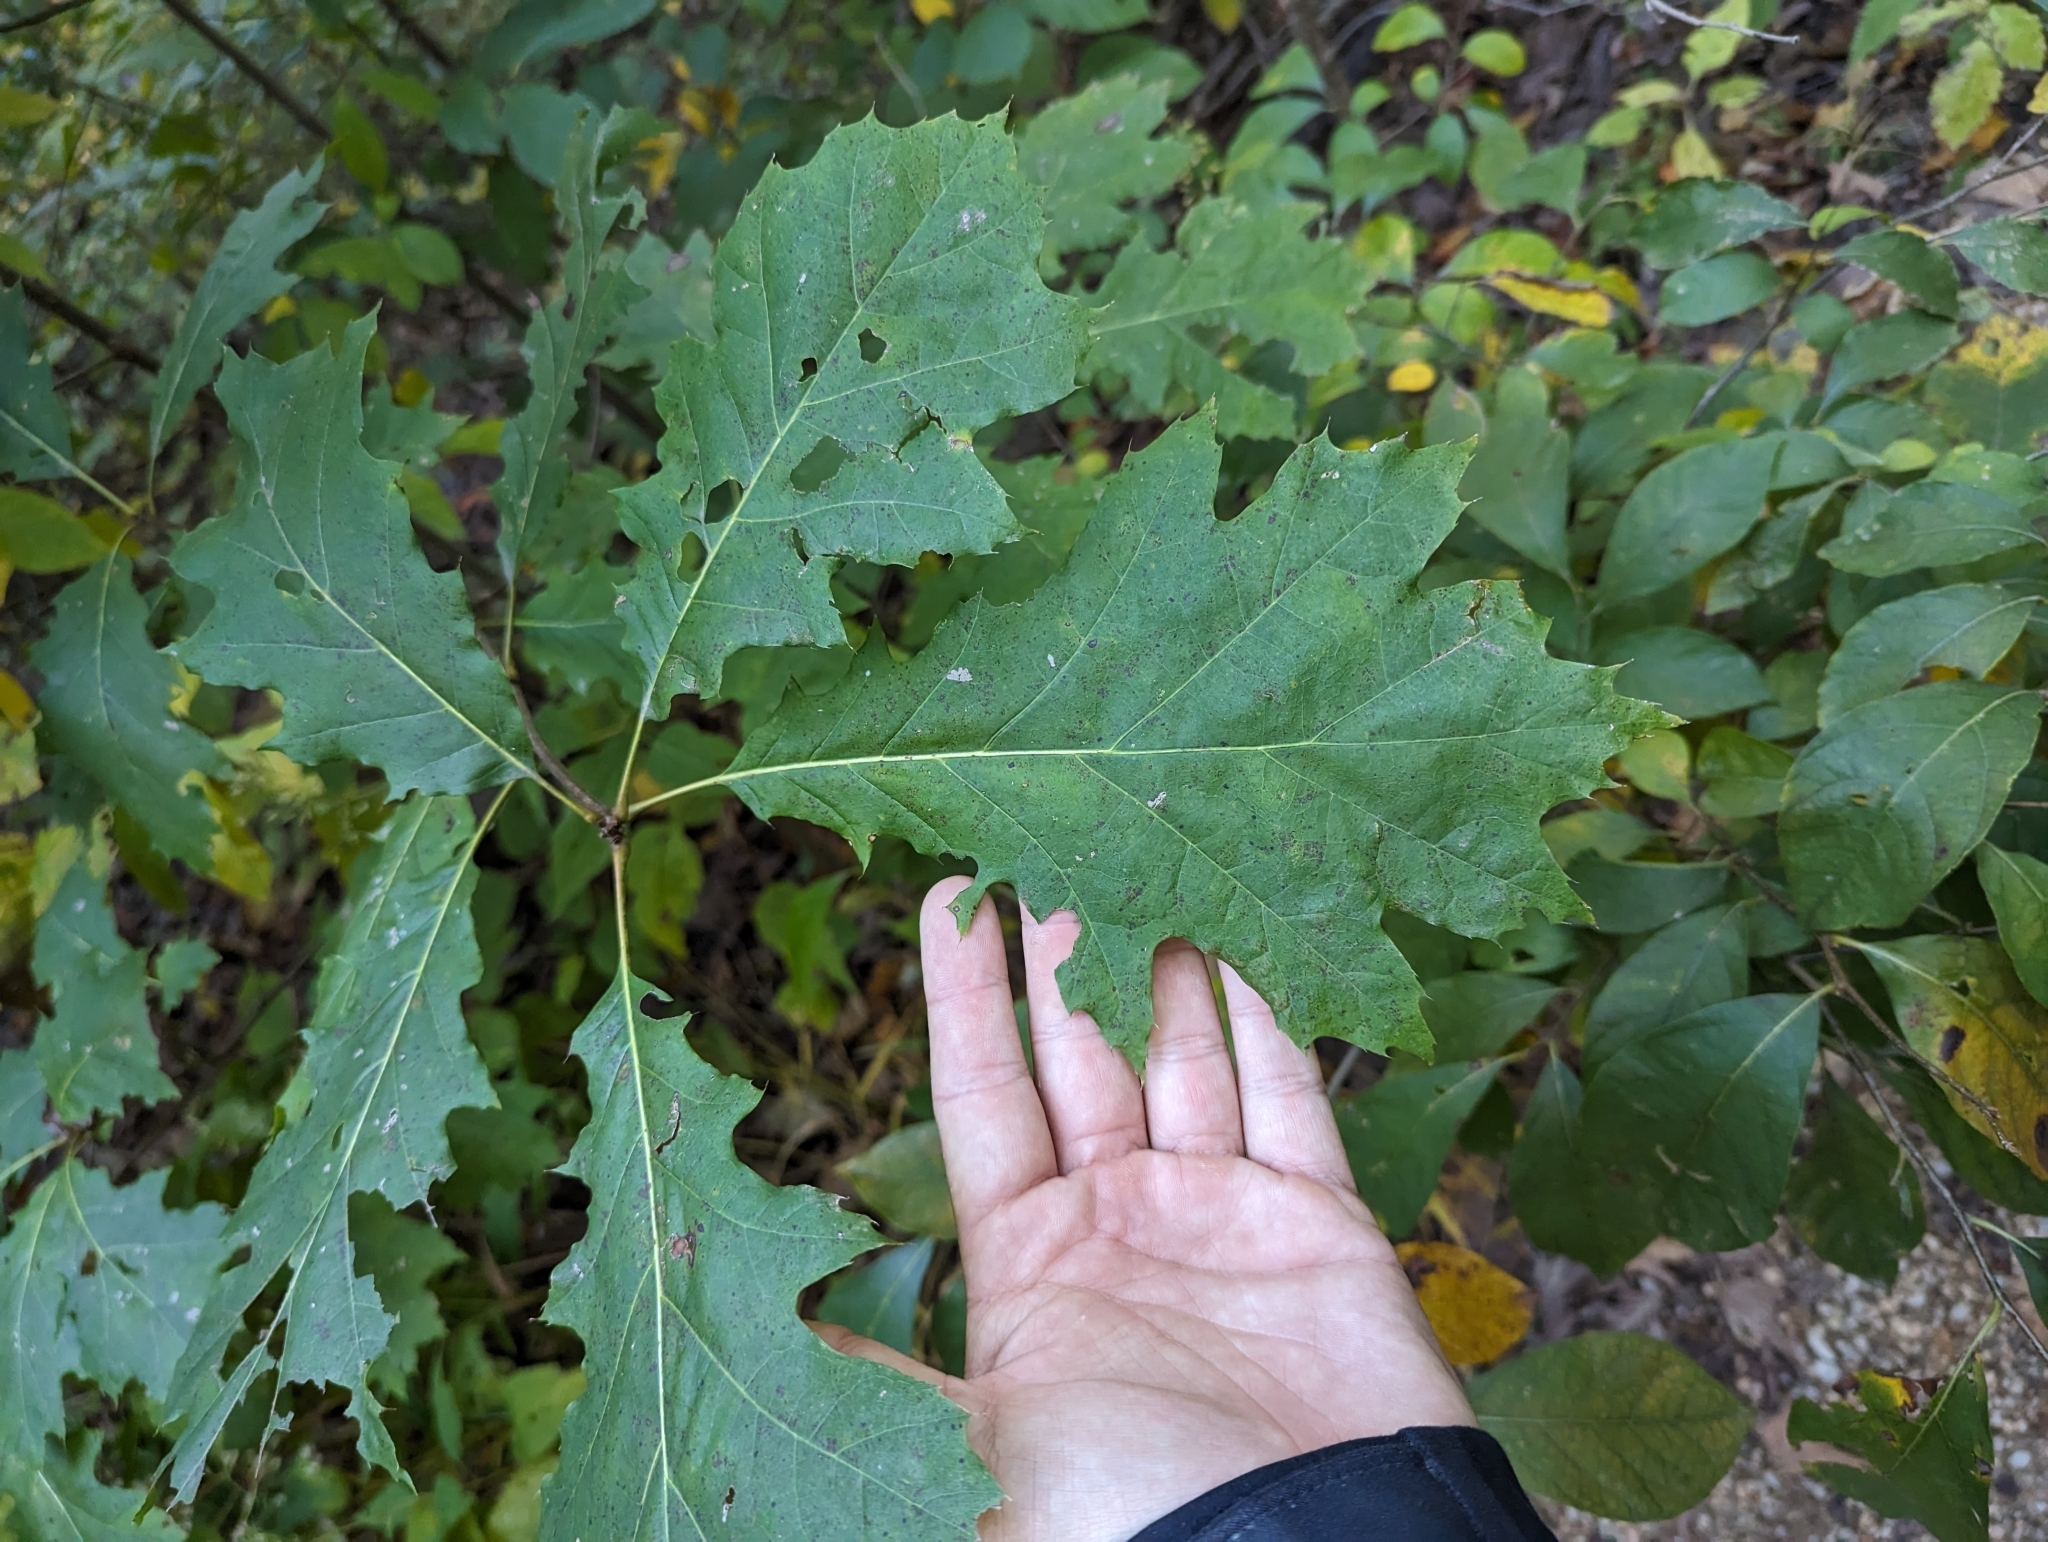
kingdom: Plantae
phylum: Tracheophyta
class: Magnoliopsida
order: Fagales
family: Fagaceae
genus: Quercus
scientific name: Quercus rubra
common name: Red oak
